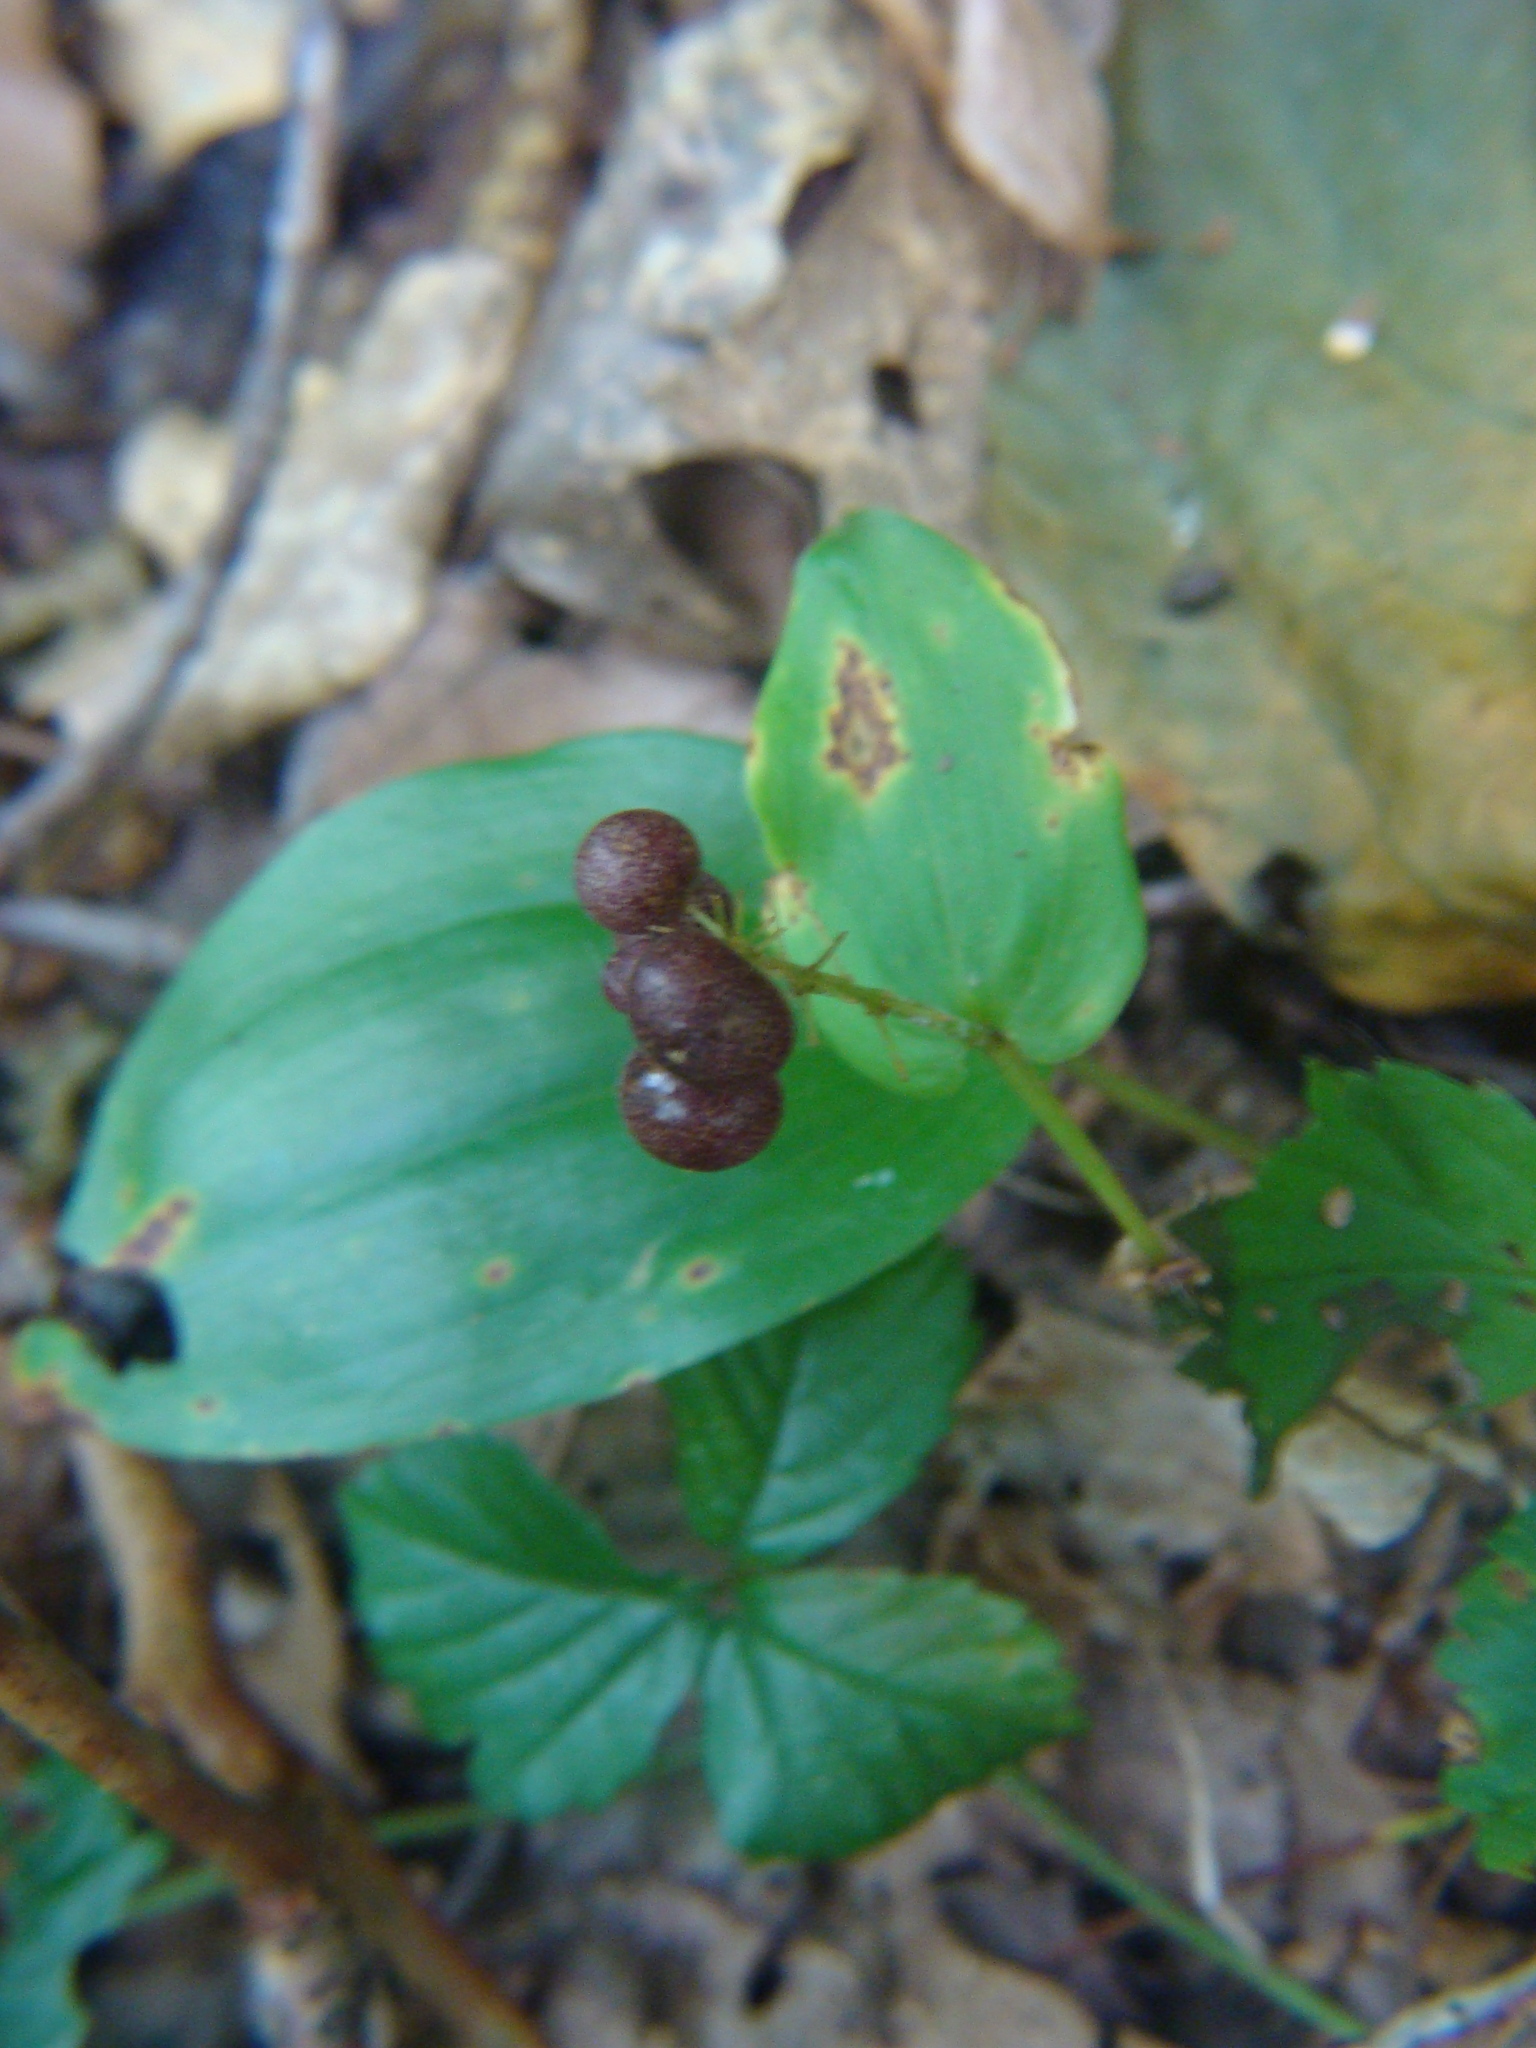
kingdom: Plantae
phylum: Tracheophyta
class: Liliopsida
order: Asparagales
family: Asparagaceae
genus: Maianthemum
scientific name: Maianthemum canadense
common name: False lily-of-the-valley
